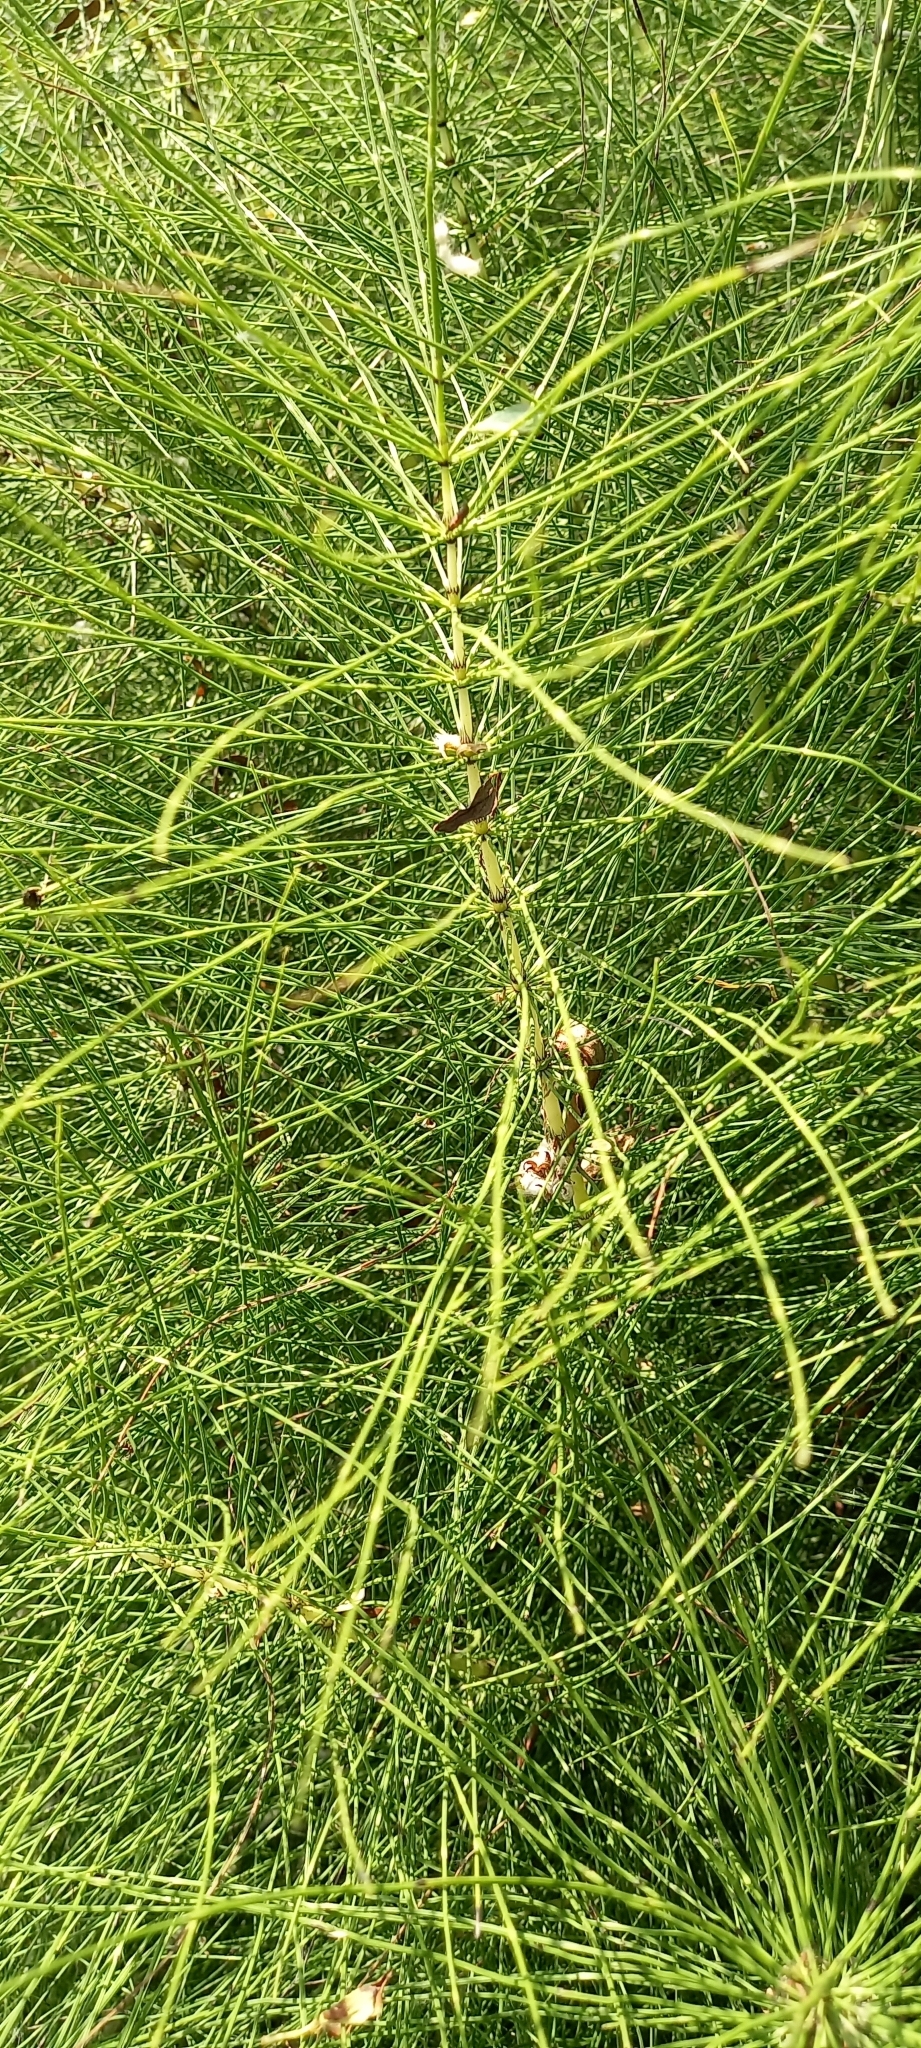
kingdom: Plantae
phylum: Tracheophyta
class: Polypodiopsida
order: Equisetales
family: Equisetaceae
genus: Equisetum
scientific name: Equisetum telmateia
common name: Great horsetail
